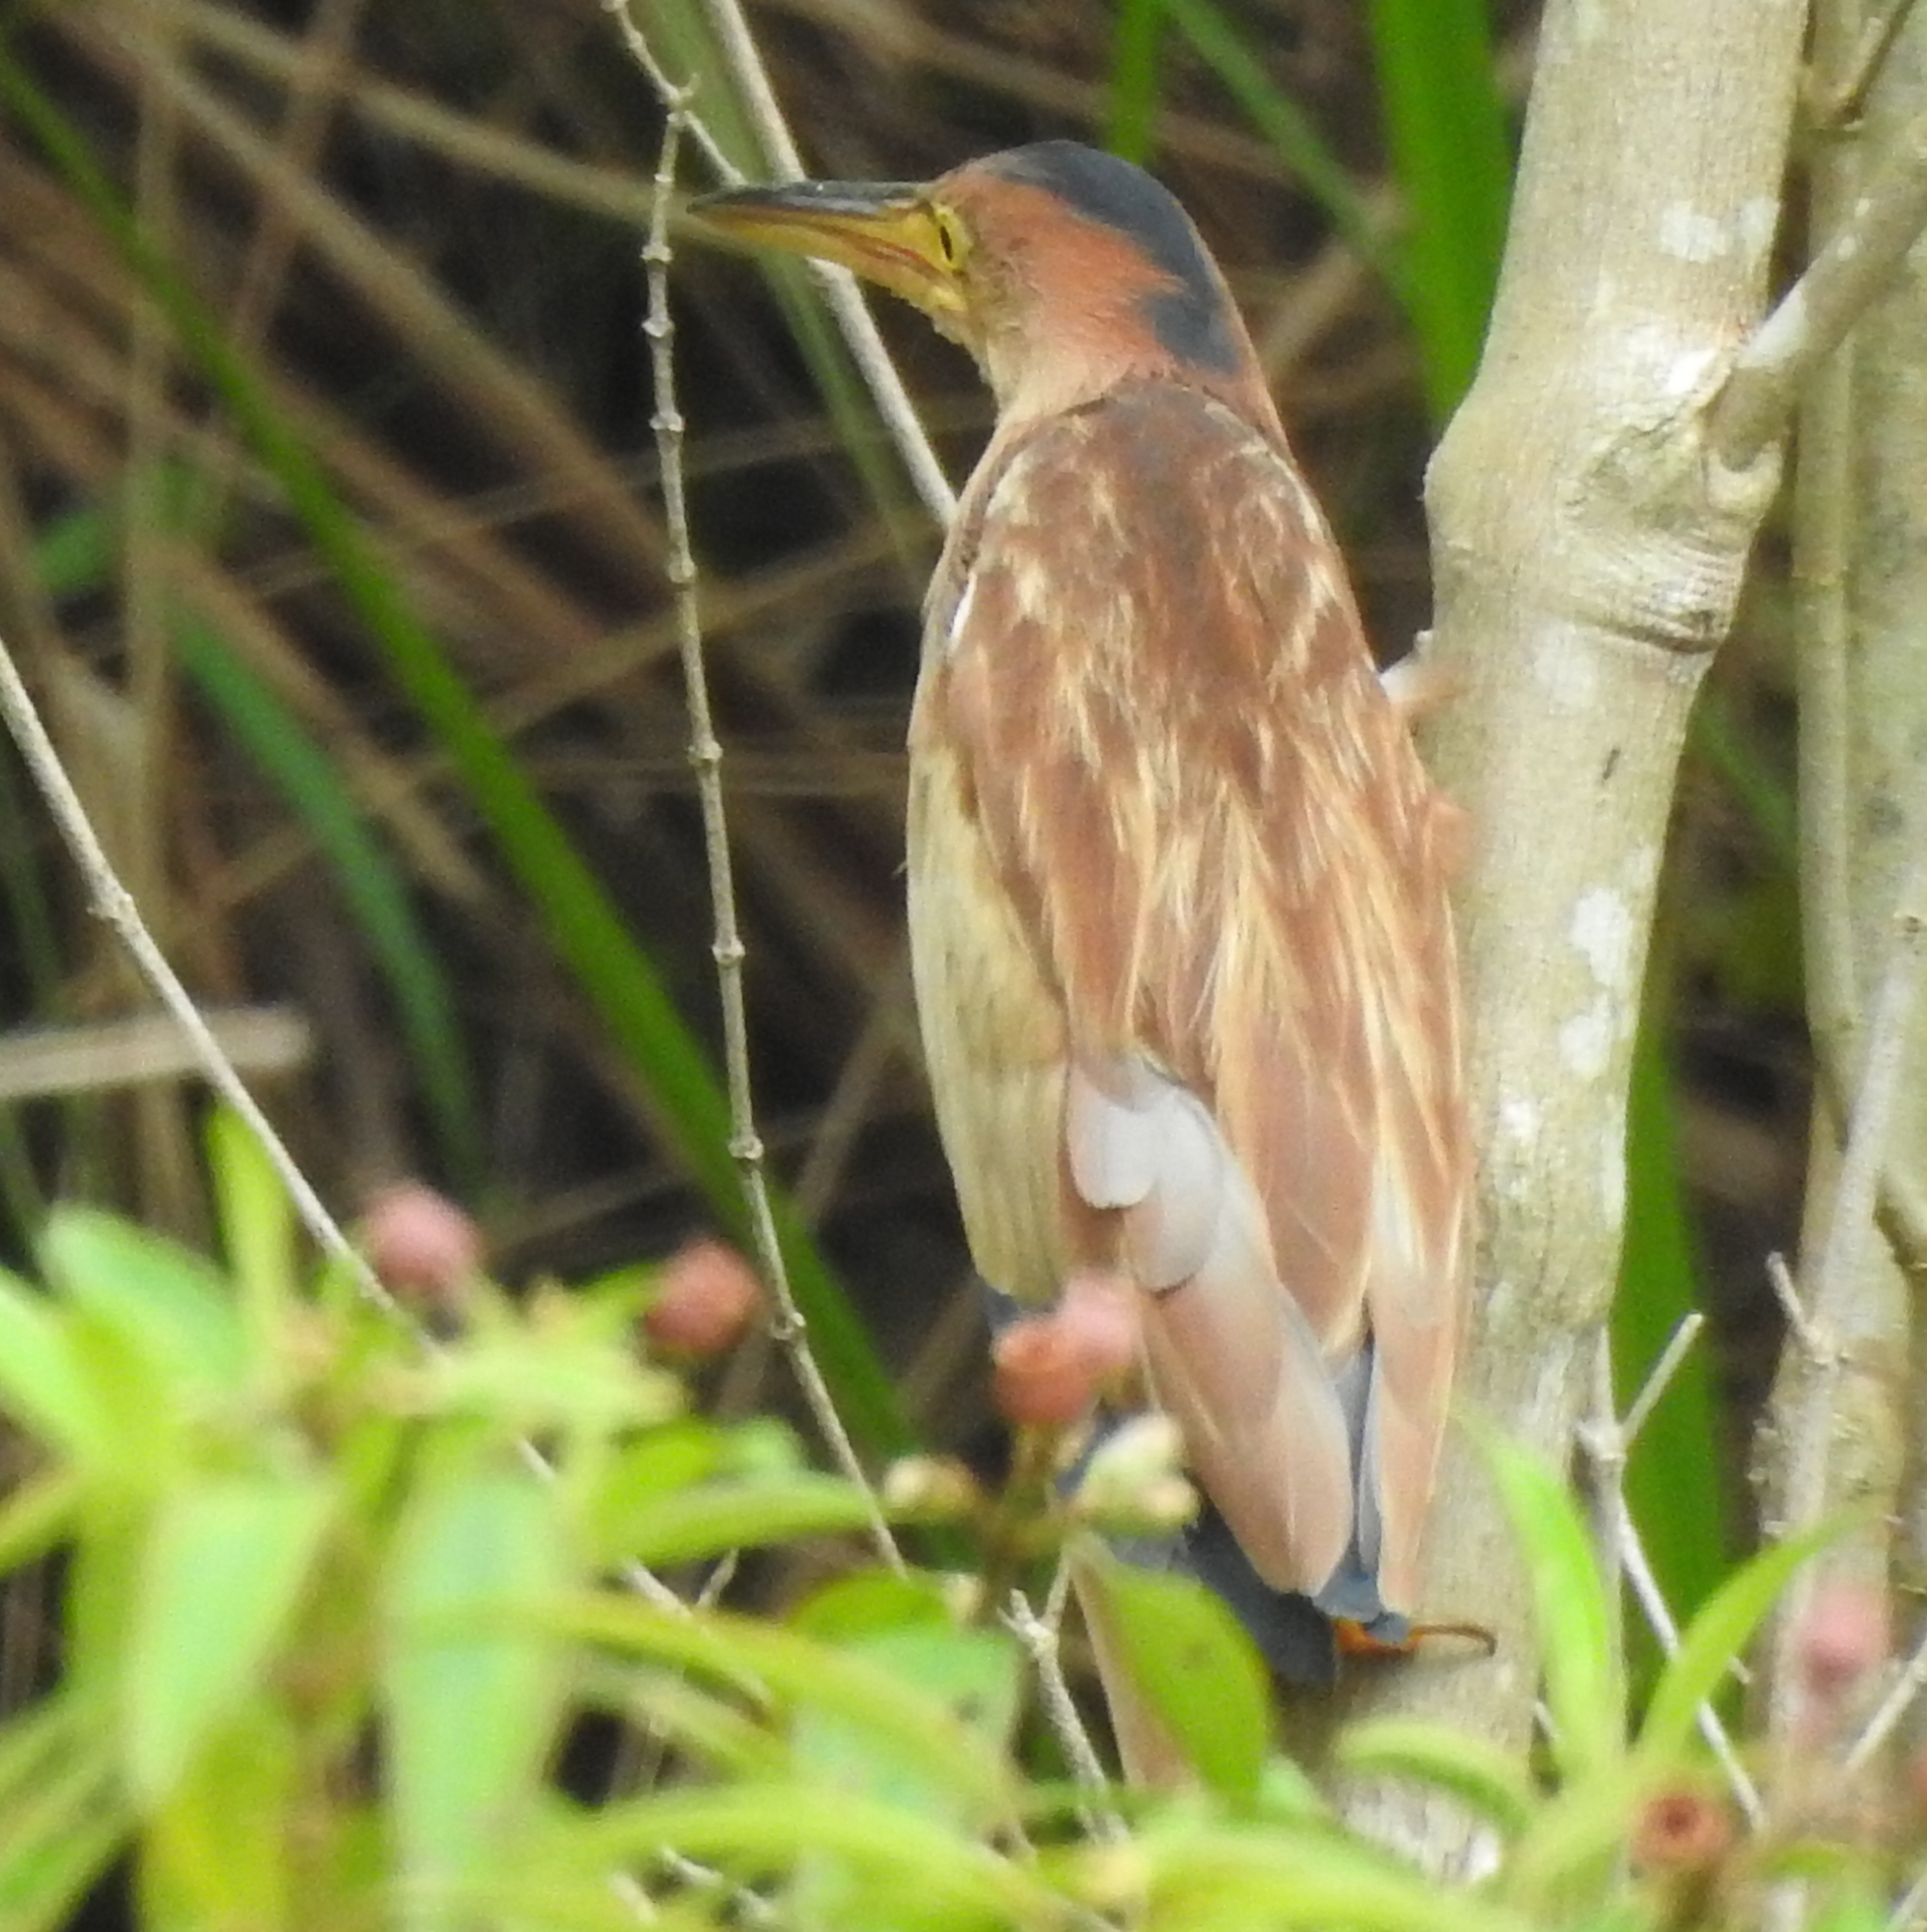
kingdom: Animalia
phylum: Chordata
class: Aves
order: Pelecaniformes
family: Ardeidae
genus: Ixobrychus
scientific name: Ixobrychus sinensis
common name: Yellow bittern
